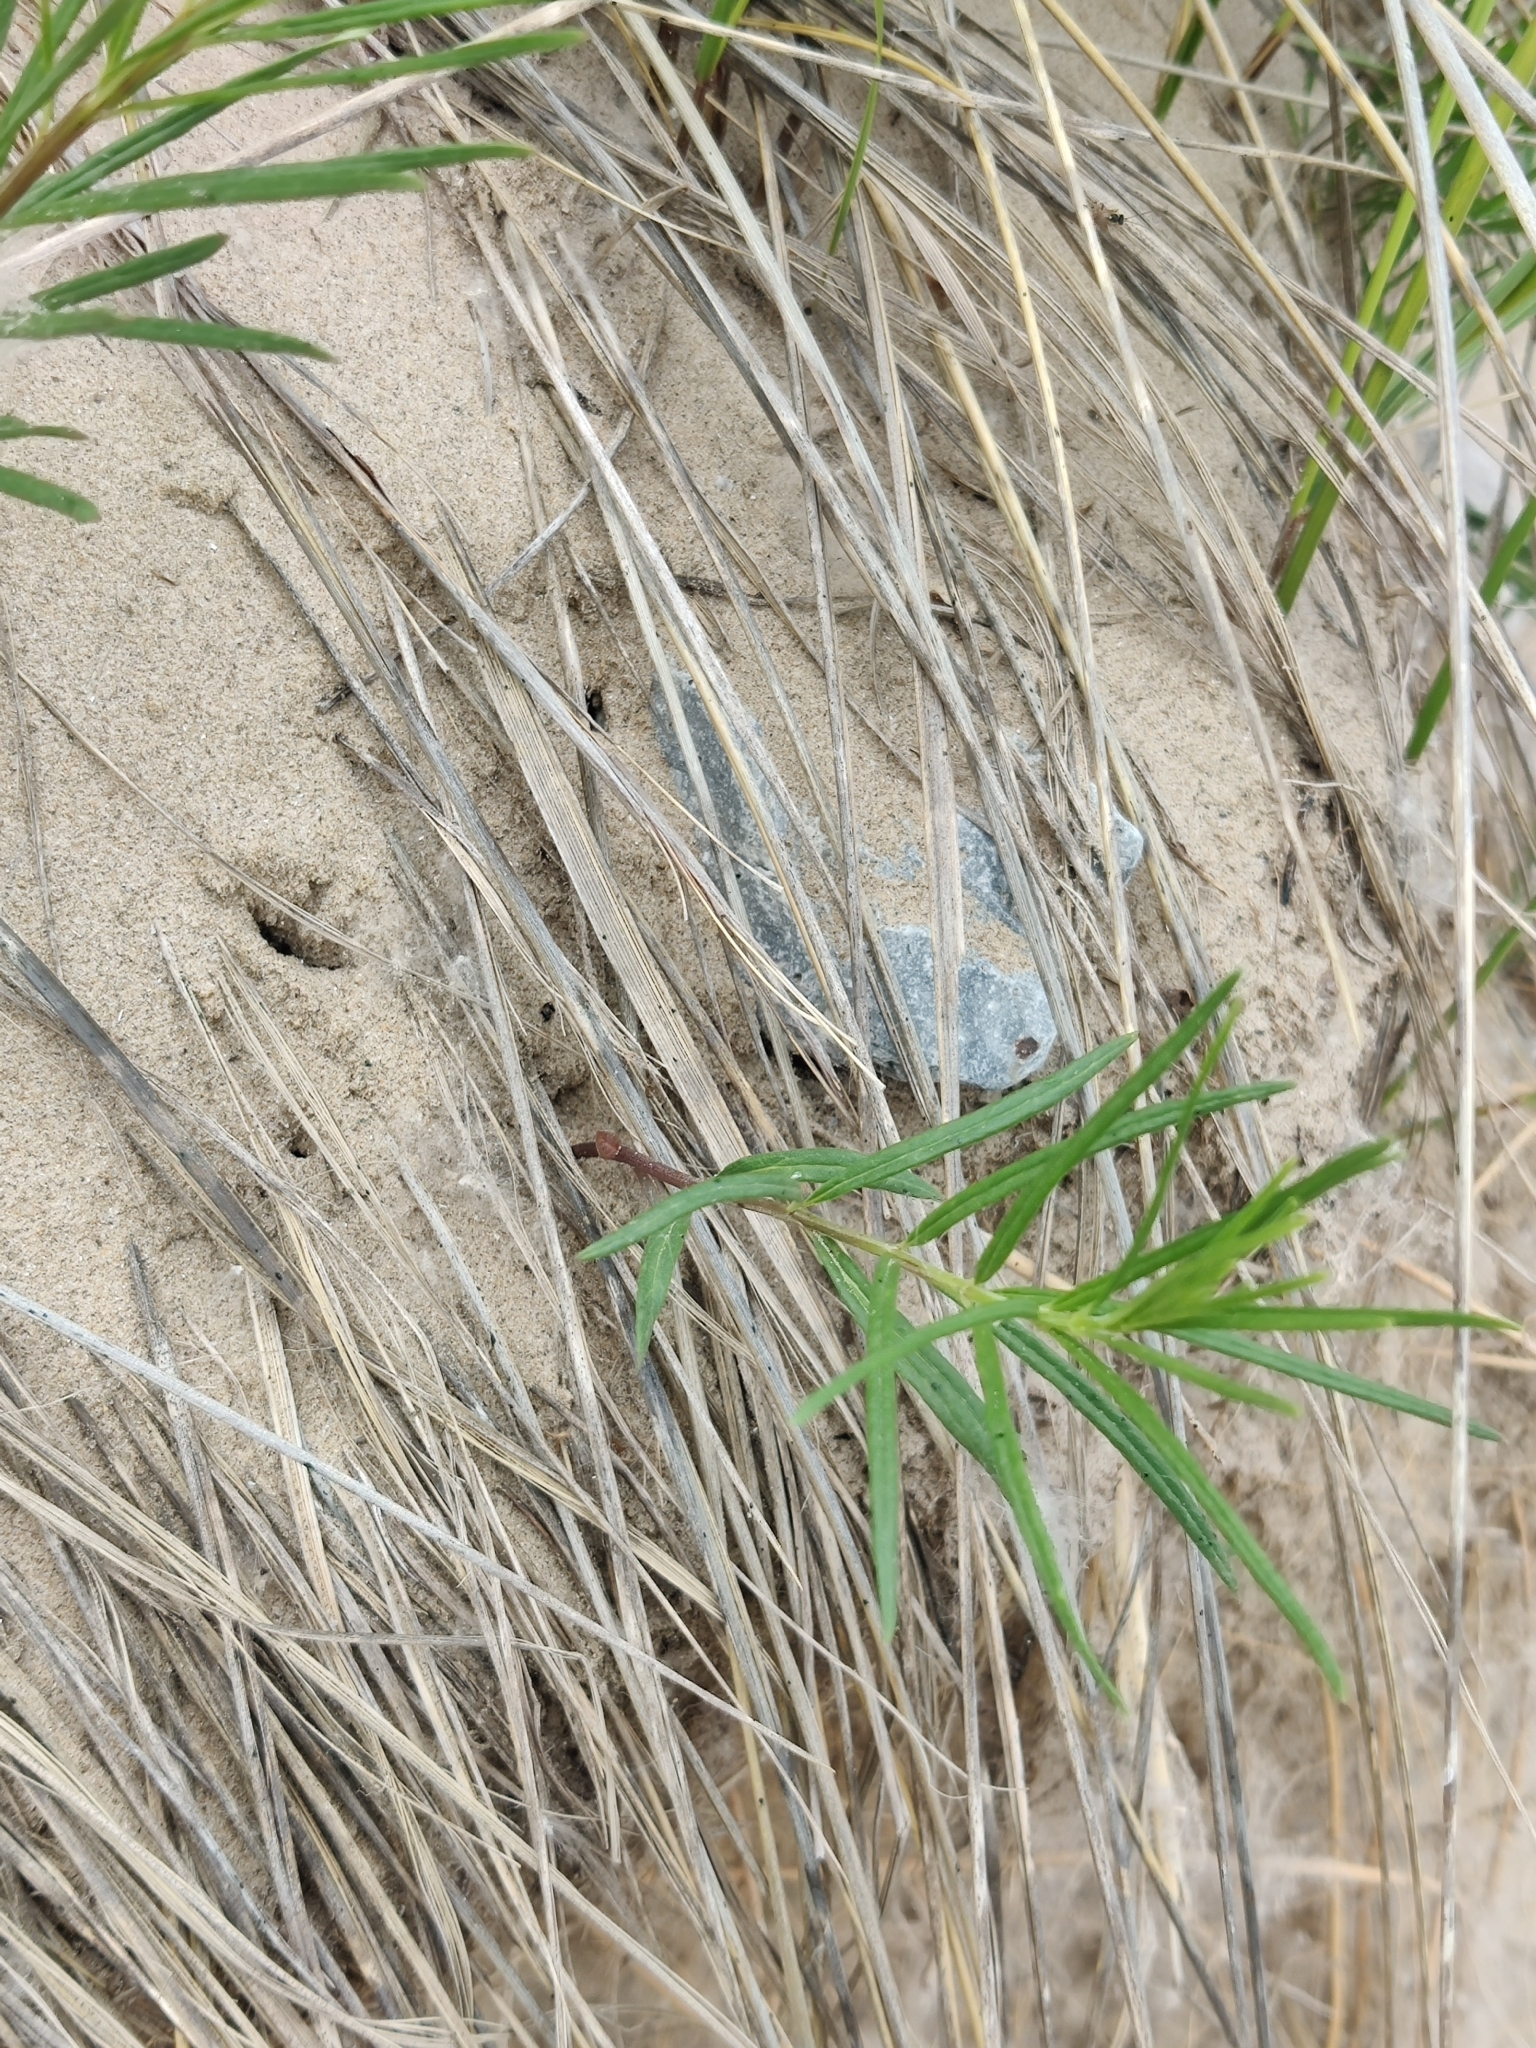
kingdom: Plantae
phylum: Tracheophyta
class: Magnoliopsida
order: Gentianales
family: Apocynaceae
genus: Asclepias
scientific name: Asclepias verticillata
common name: Eastern whorled milkweed
